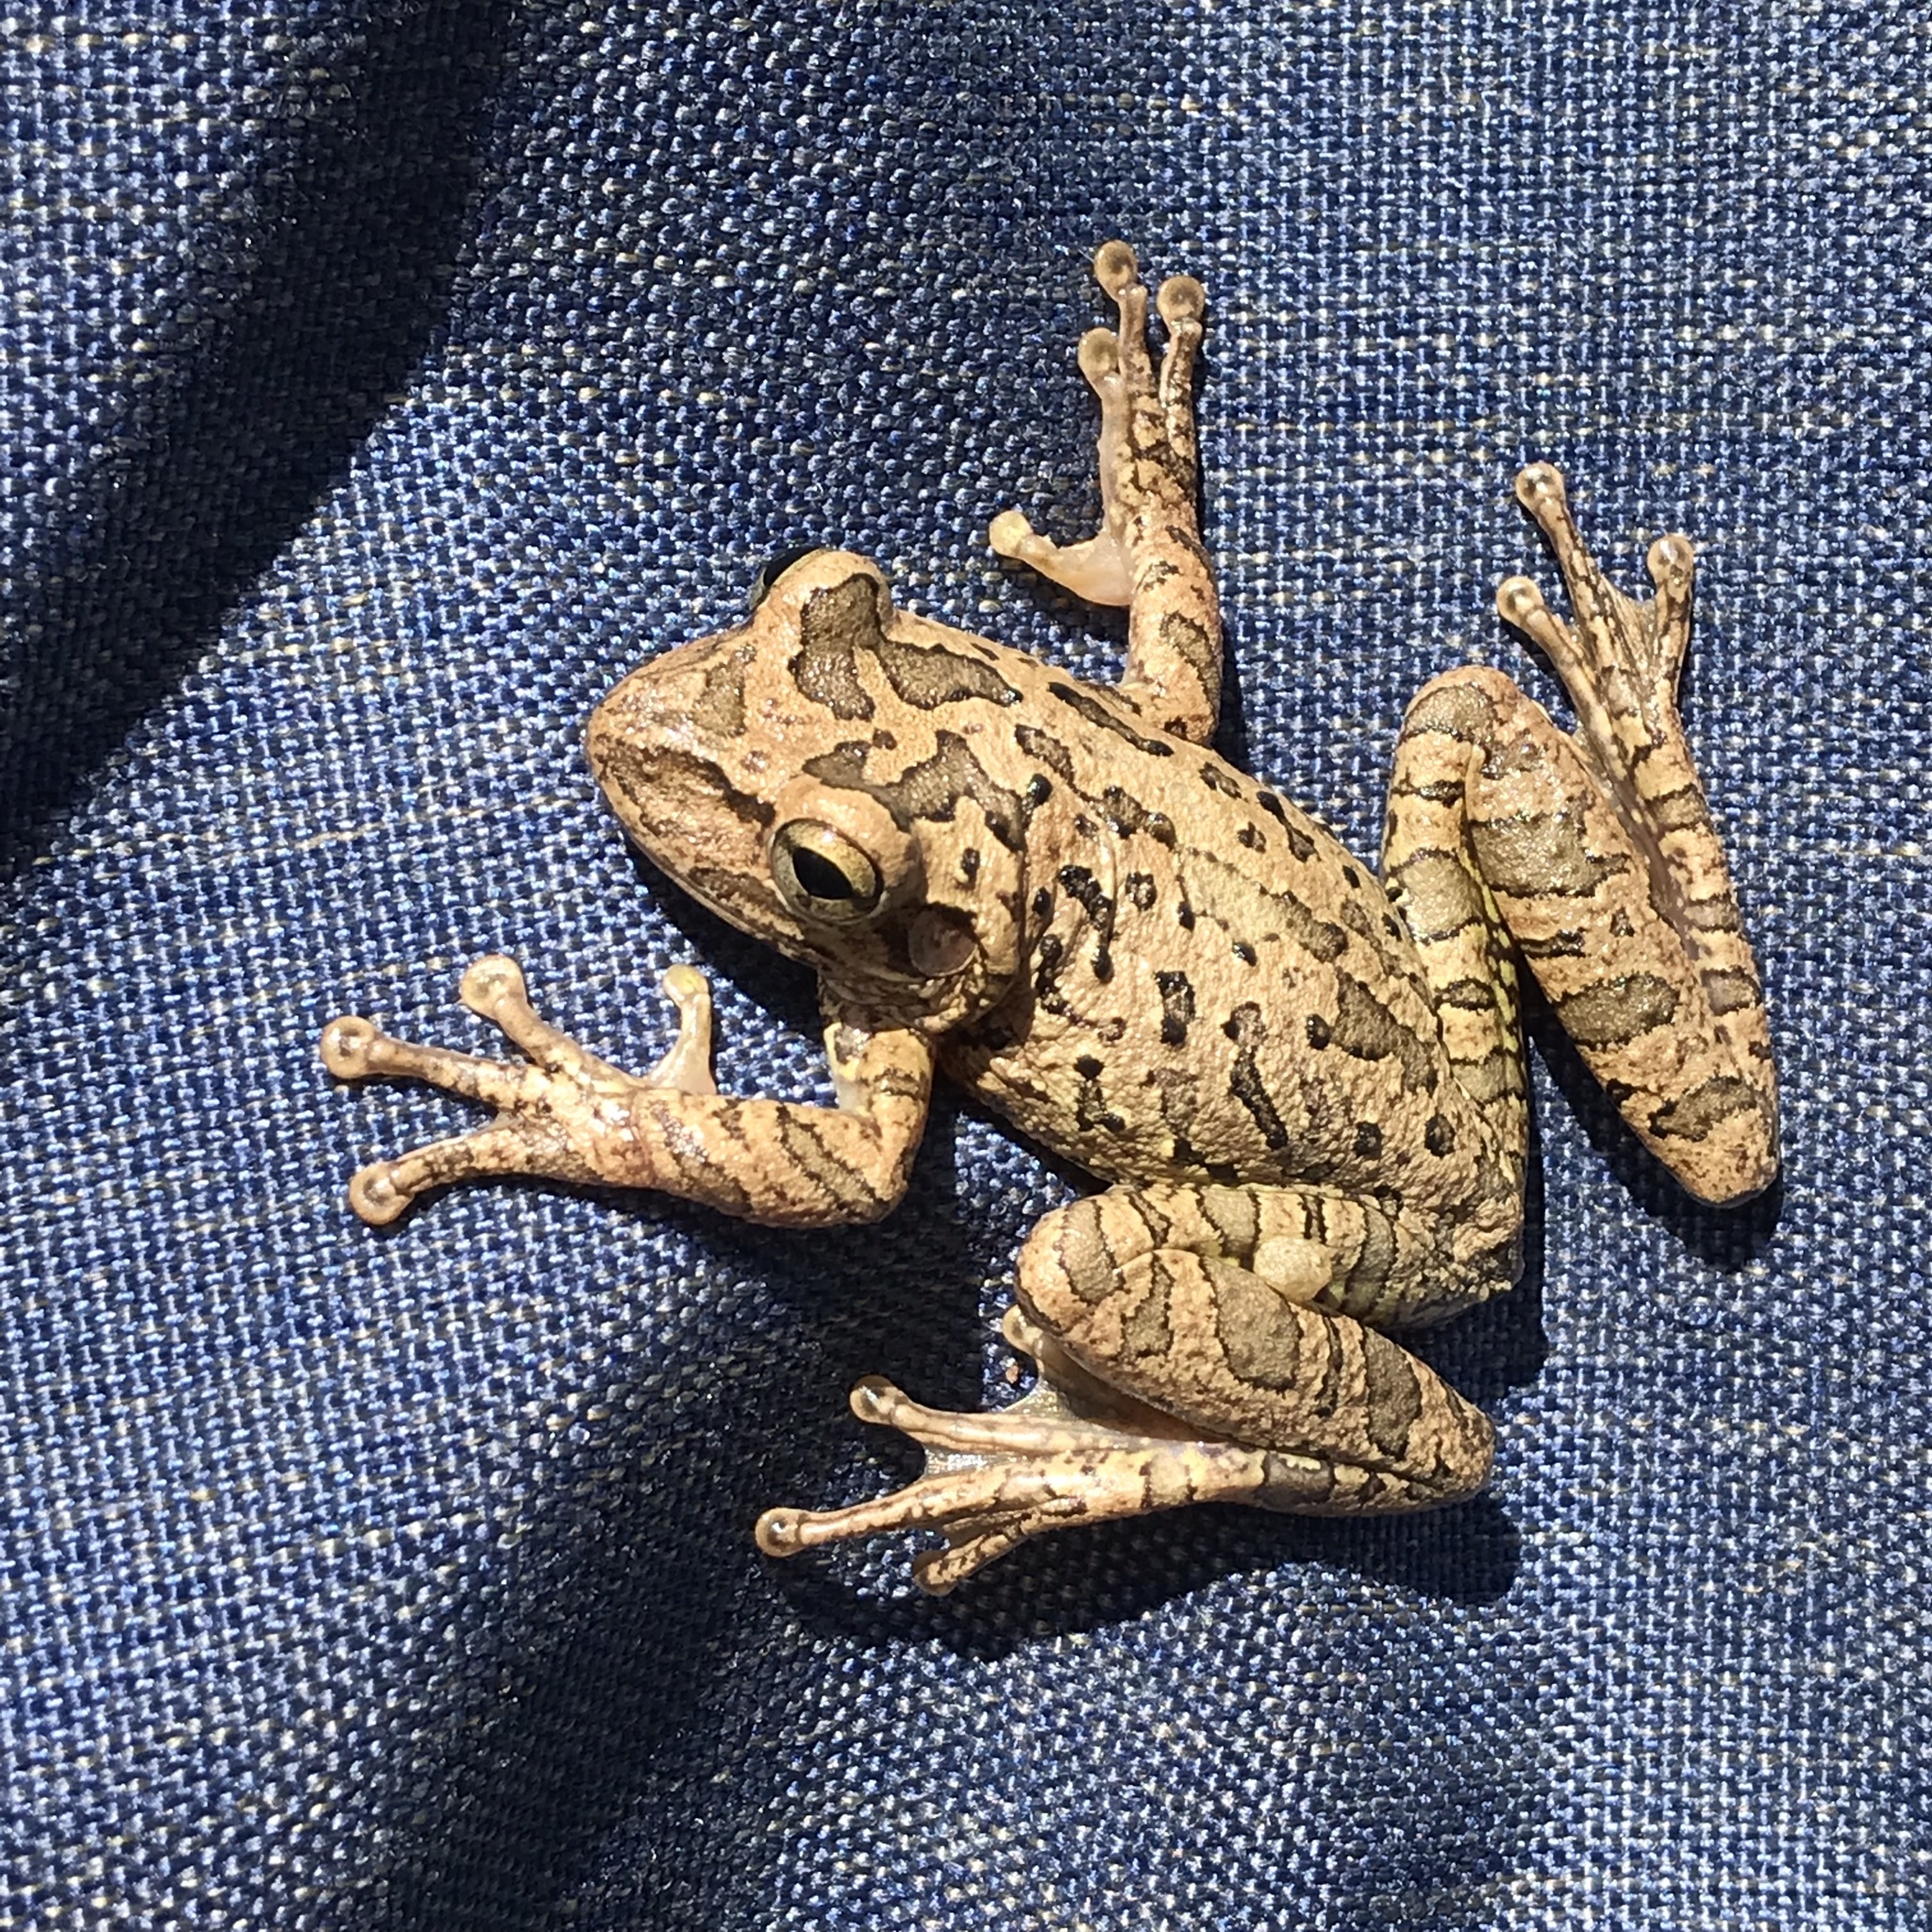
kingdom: Animalia
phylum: Chordata
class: Amphibia
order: Anura
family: Hylidae
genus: Osteopilus
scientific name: Osteopilus septentrionalis
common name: Cuban treefrog
